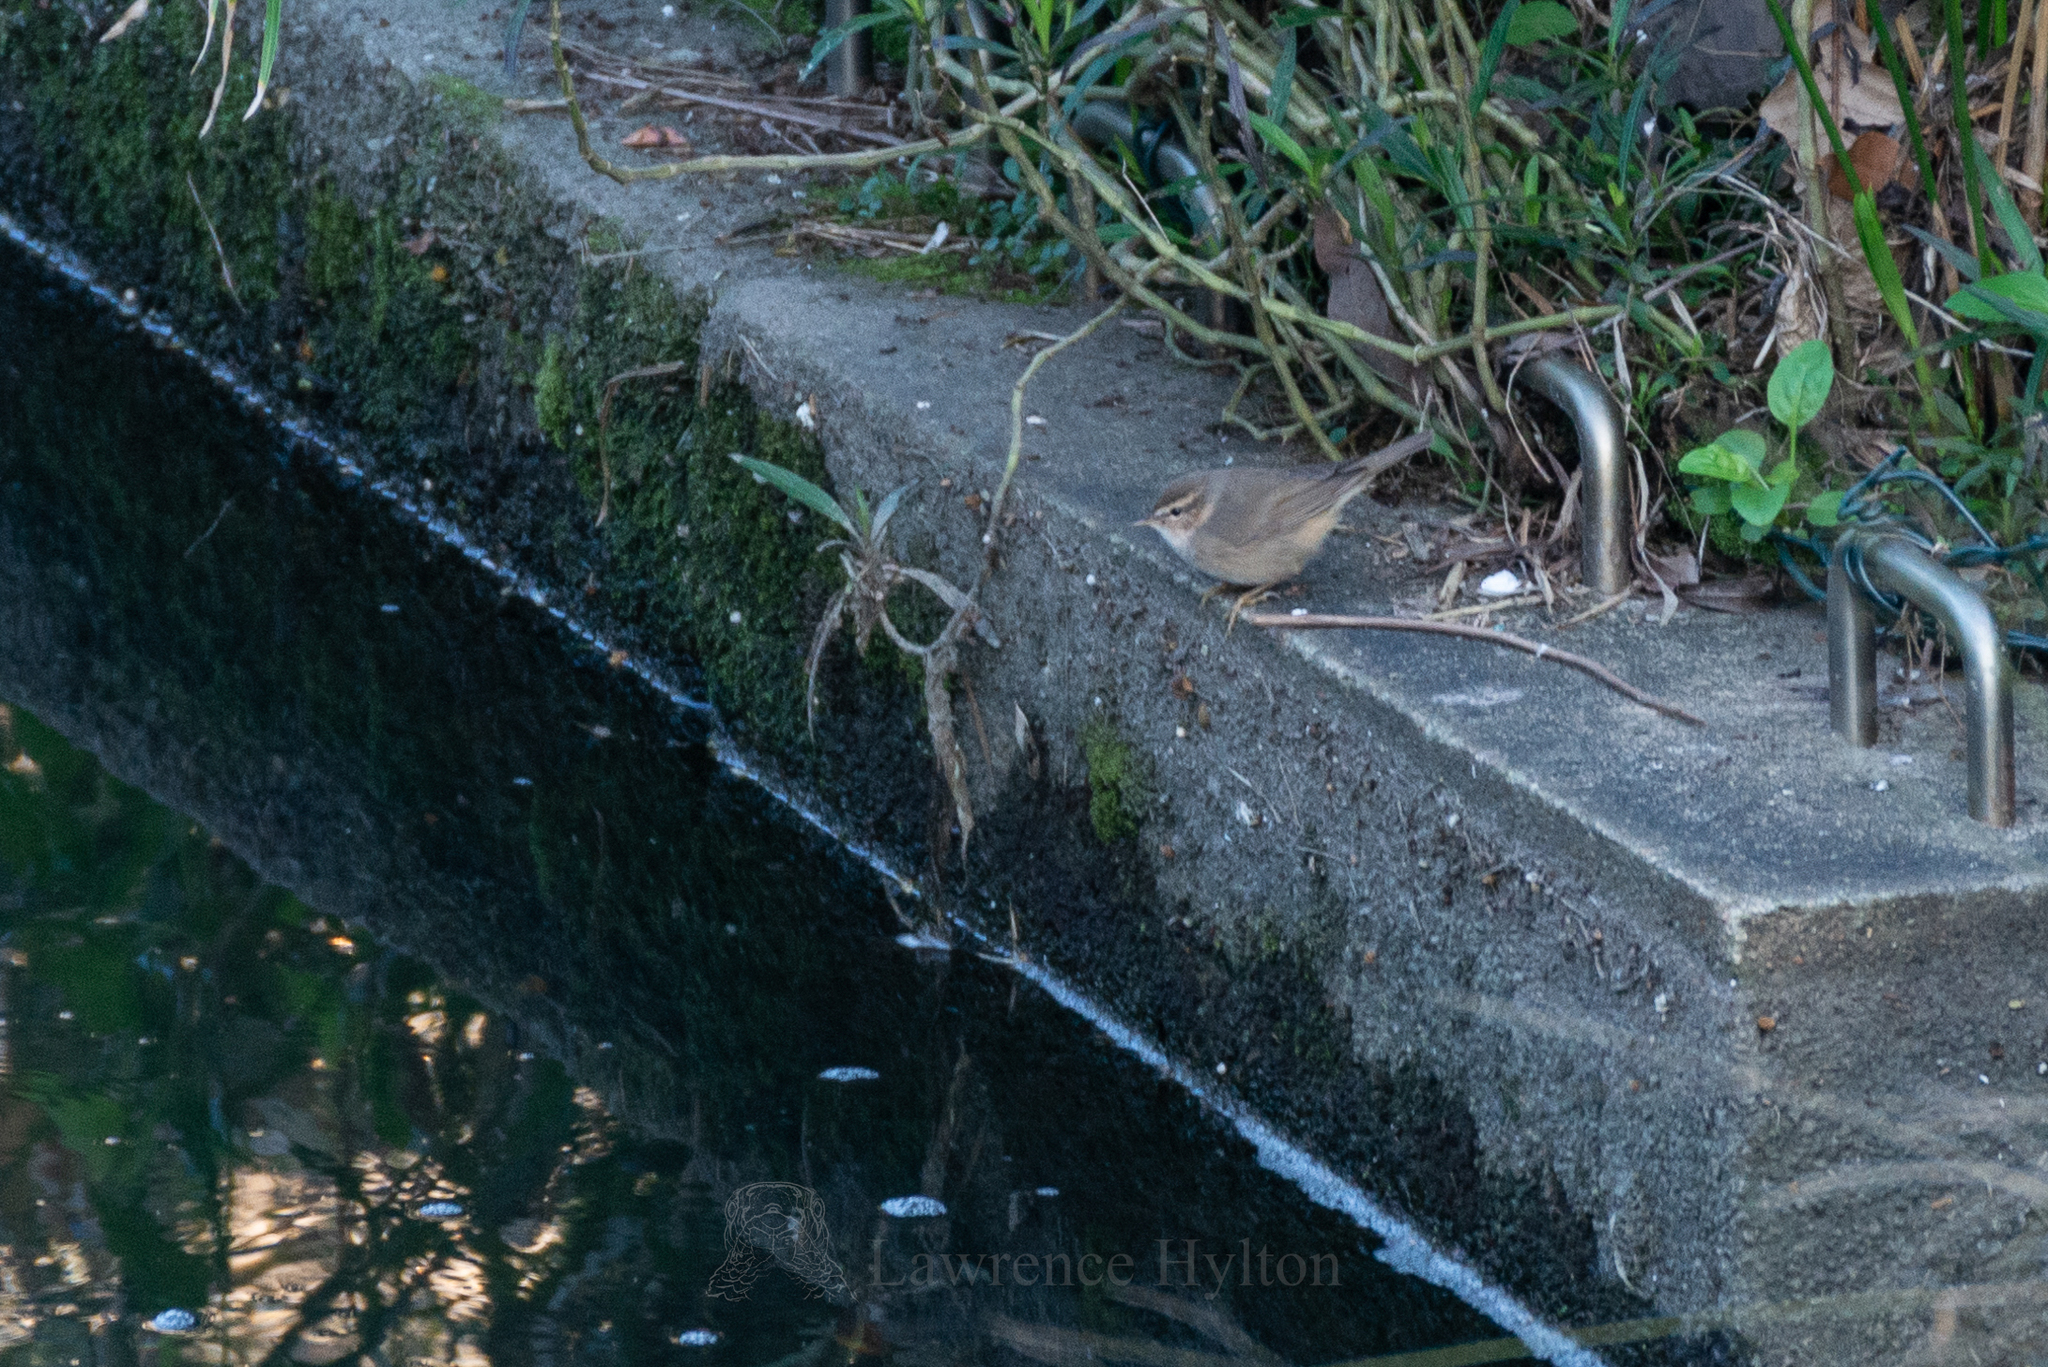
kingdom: Animalia
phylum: Chordata
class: Aves
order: Passeriformes
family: Phylloscopidae
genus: Phylloscopus
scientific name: Phylloscopus fuscatus
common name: Dusky warbler
